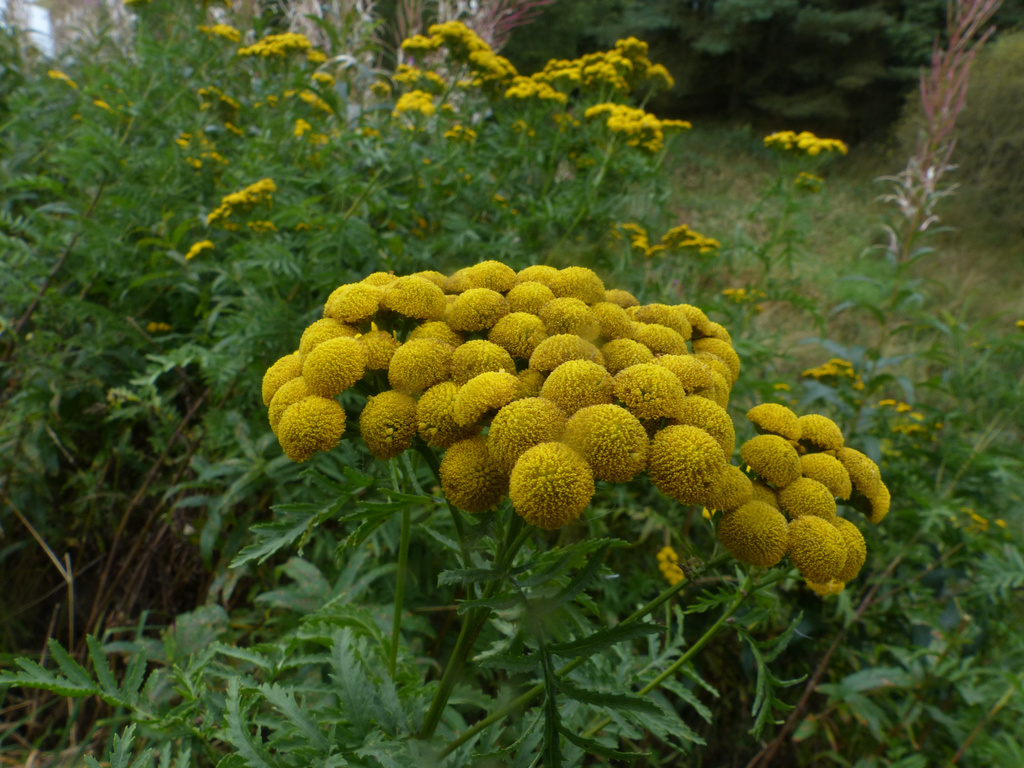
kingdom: Plantae
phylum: Tracheophyta
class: Magnoliopsida
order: Asterales
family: Asteraceae
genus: Tanacetum
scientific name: Tanacetum vulgare
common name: Common tansy
